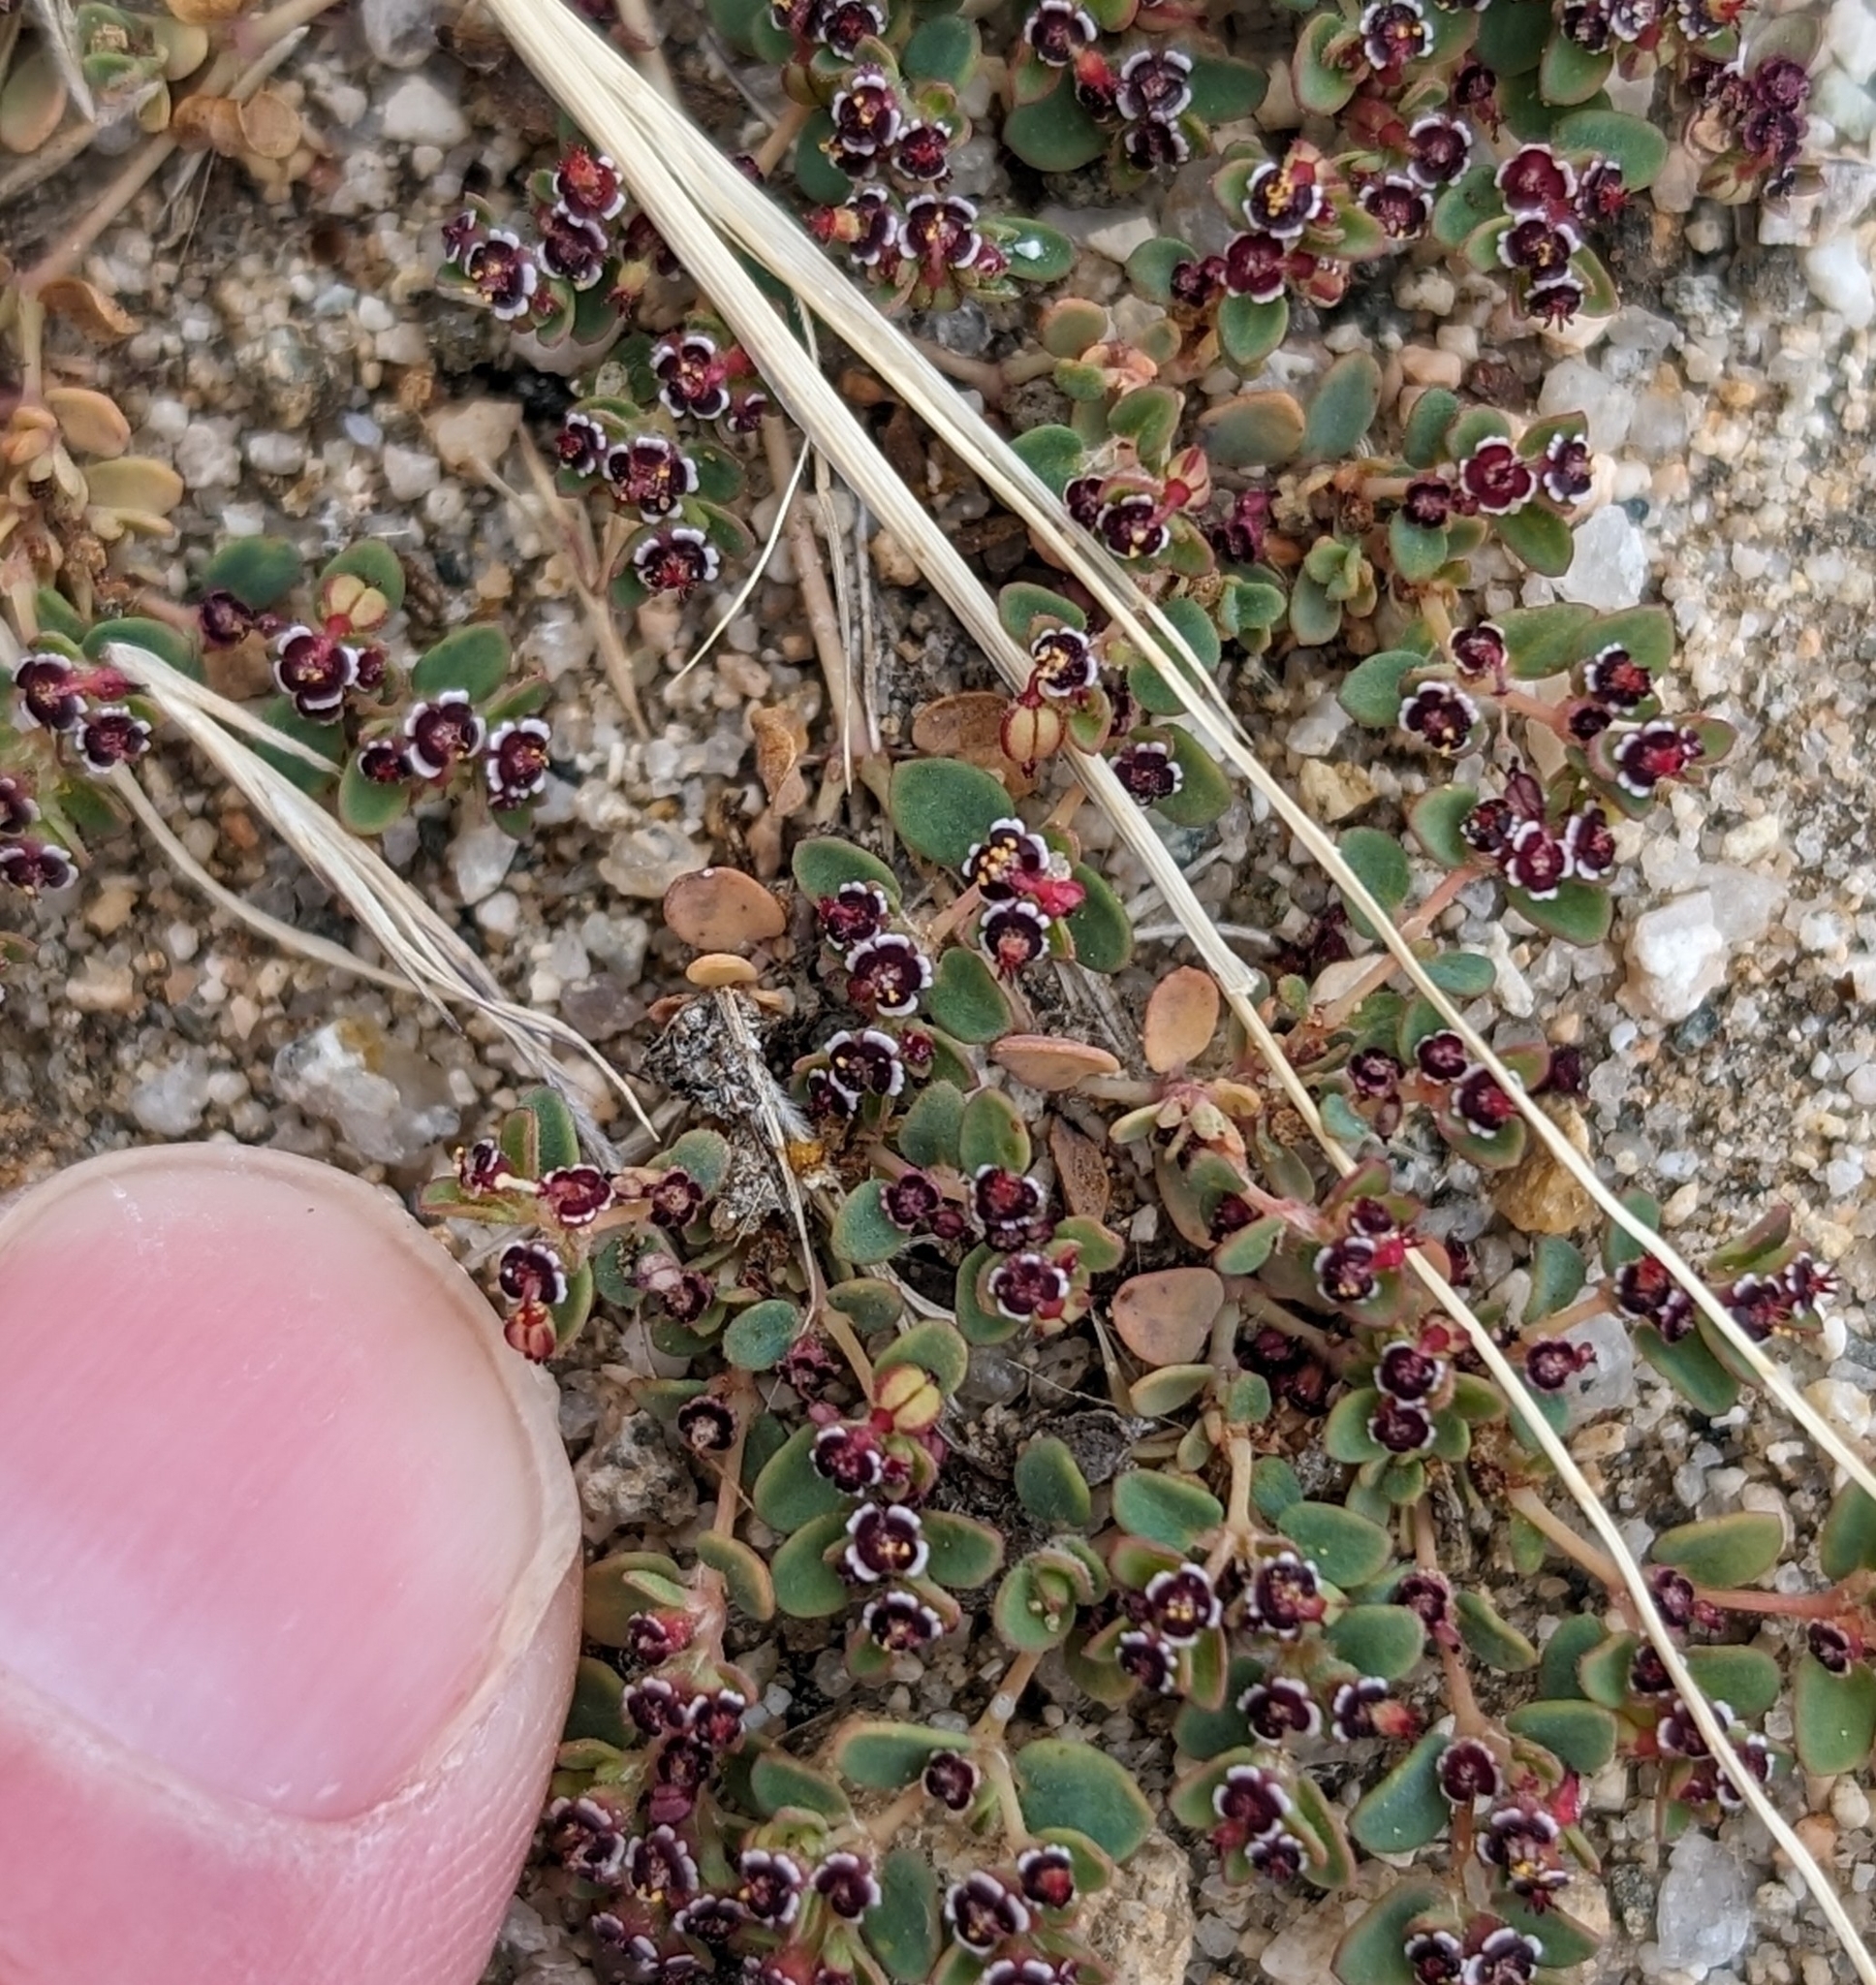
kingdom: Plantae
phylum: Tracheophyta
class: Magnoliopsida
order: Malpighiales
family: Euphorbiaceae
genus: Euphorbia
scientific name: Euphorbia polycarpa
